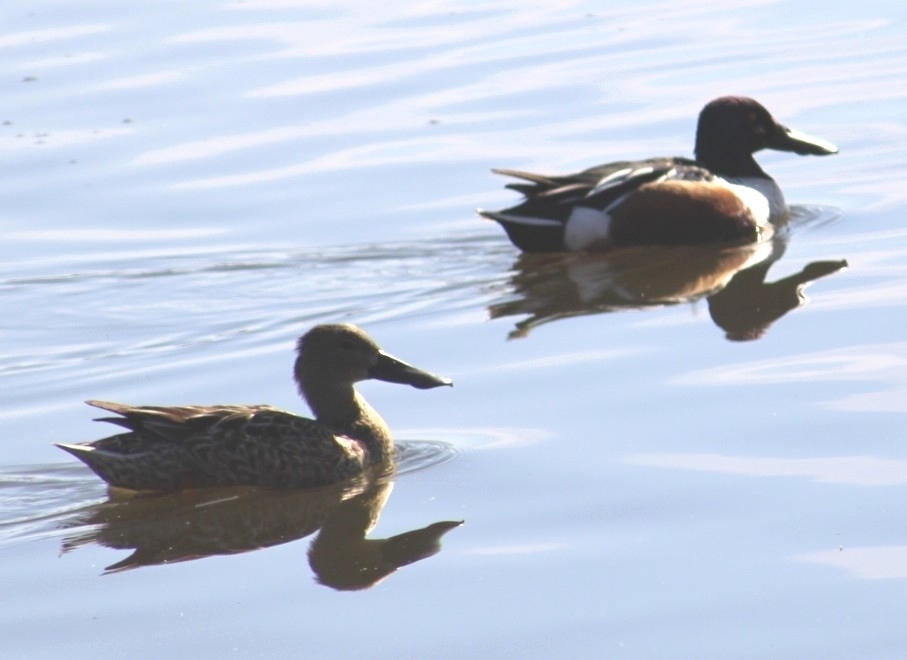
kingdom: Animalia
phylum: Chordata
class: Aves
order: Anseriformes
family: Anatidae
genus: Spatula
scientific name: Spatula clypeata
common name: Northern shoveler
